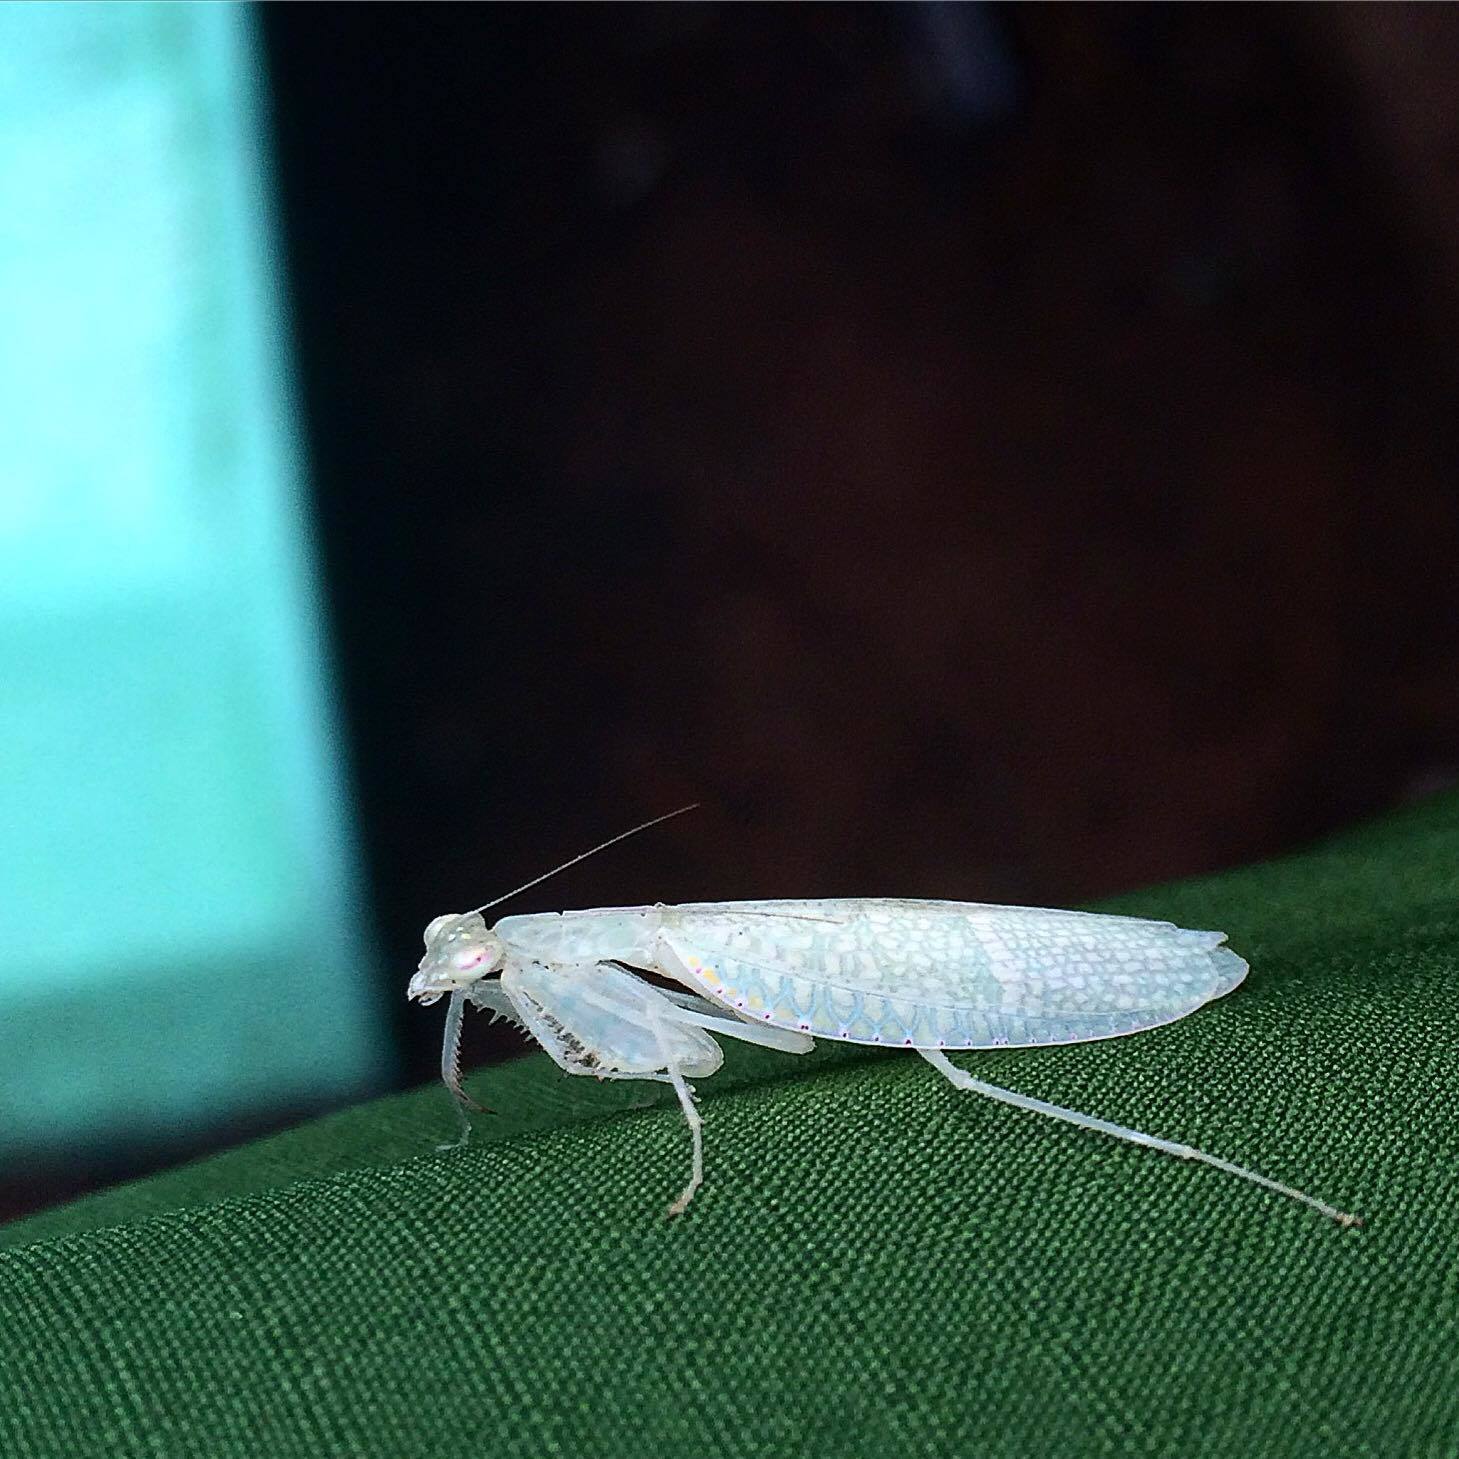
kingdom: Animalia
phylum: Arthropoda
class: Insecta
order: Mantodea
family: Nanomantidae
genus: Neomantis
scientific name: Neomantis australis
